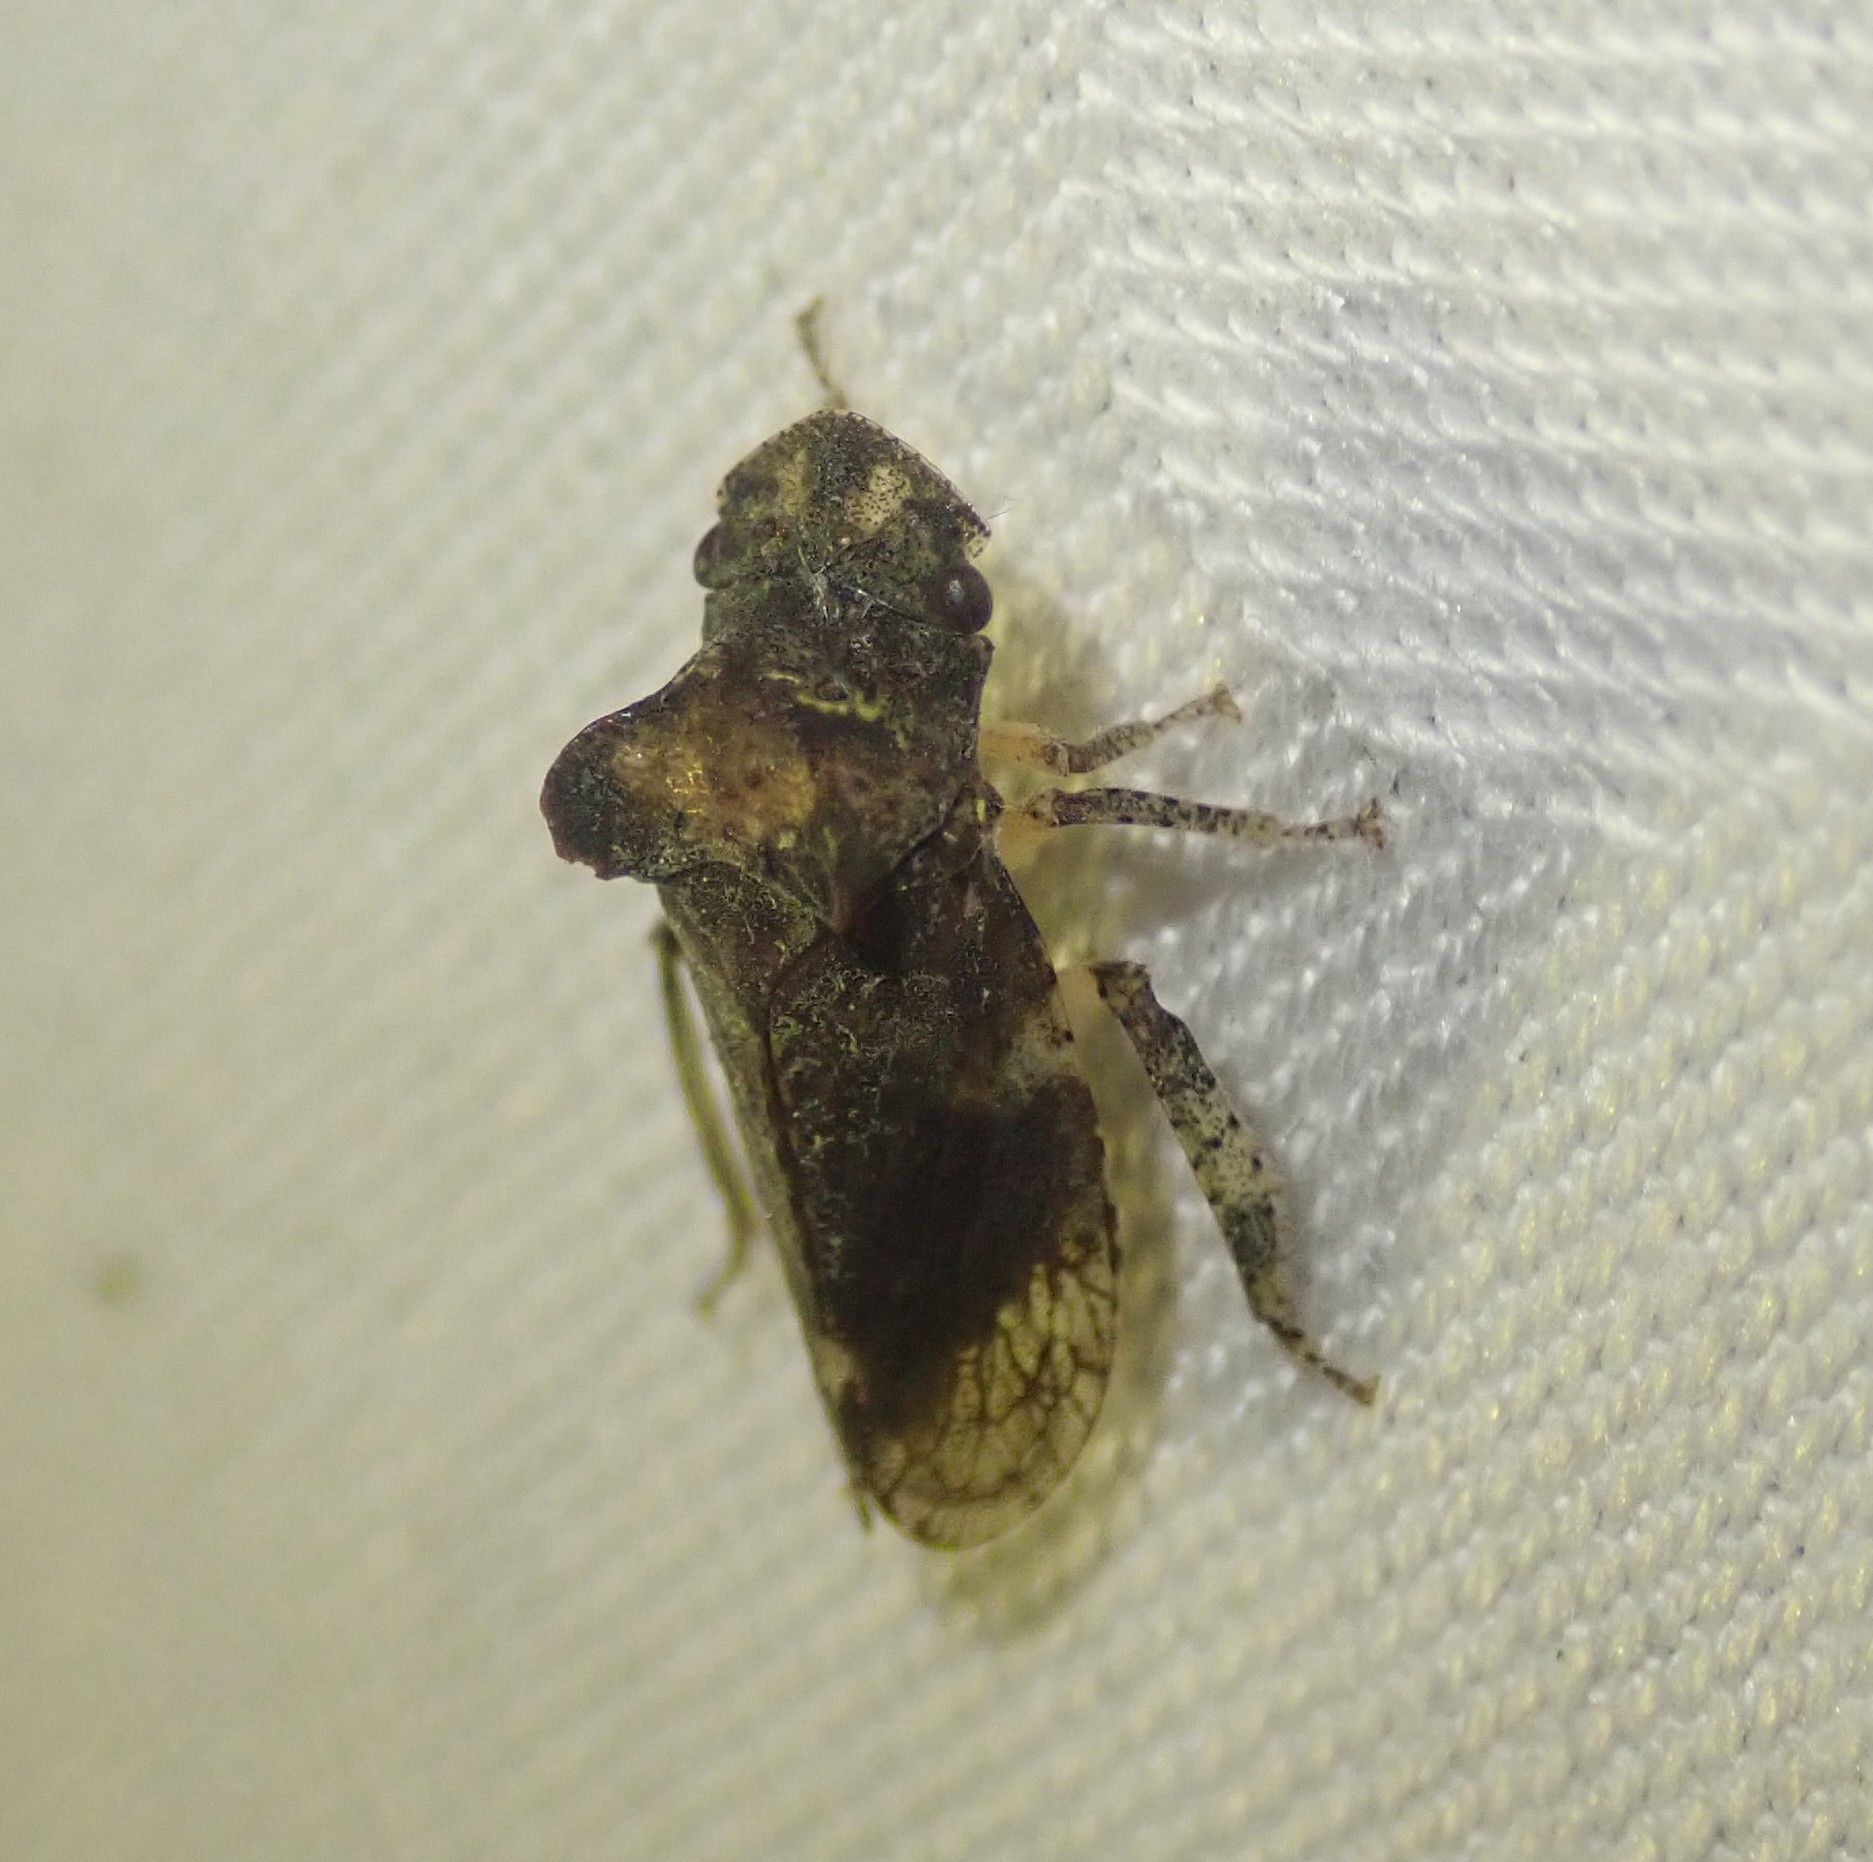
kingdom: Animalia
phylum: Arthropoda
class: Insecta
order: Hemiptera
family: Cicadellidae
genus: Ledra
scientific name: Ledra aurita
